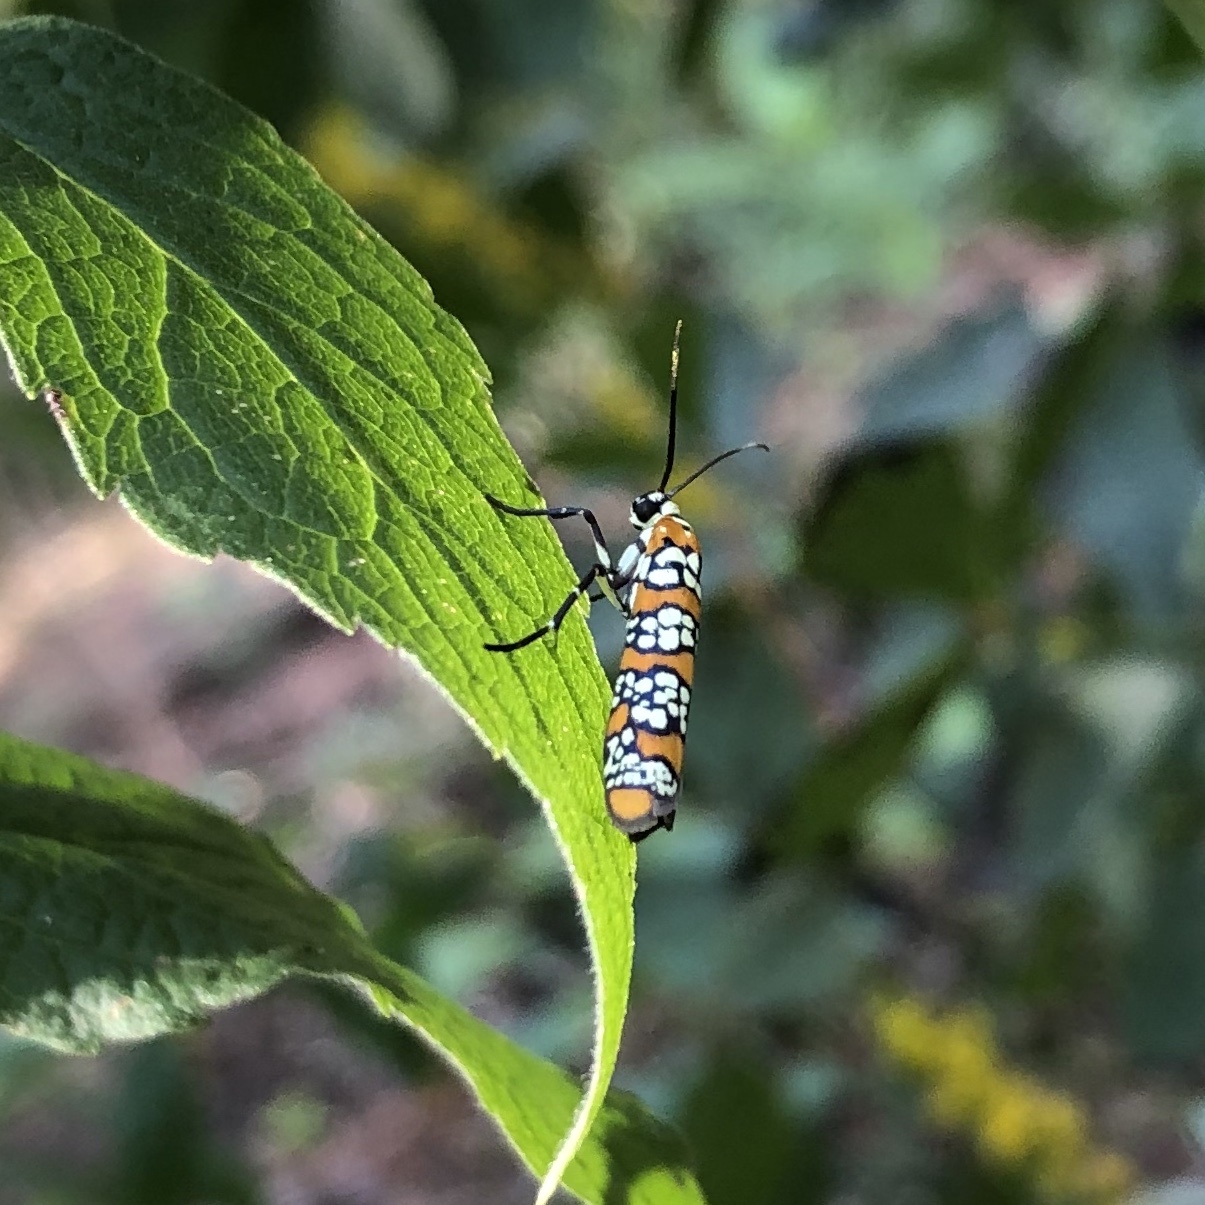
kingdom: Animalia
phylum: Arthropoda
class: Insecta
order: Lepidoptera
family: Attevidae
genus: Atteva
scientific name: Atteva punctella
